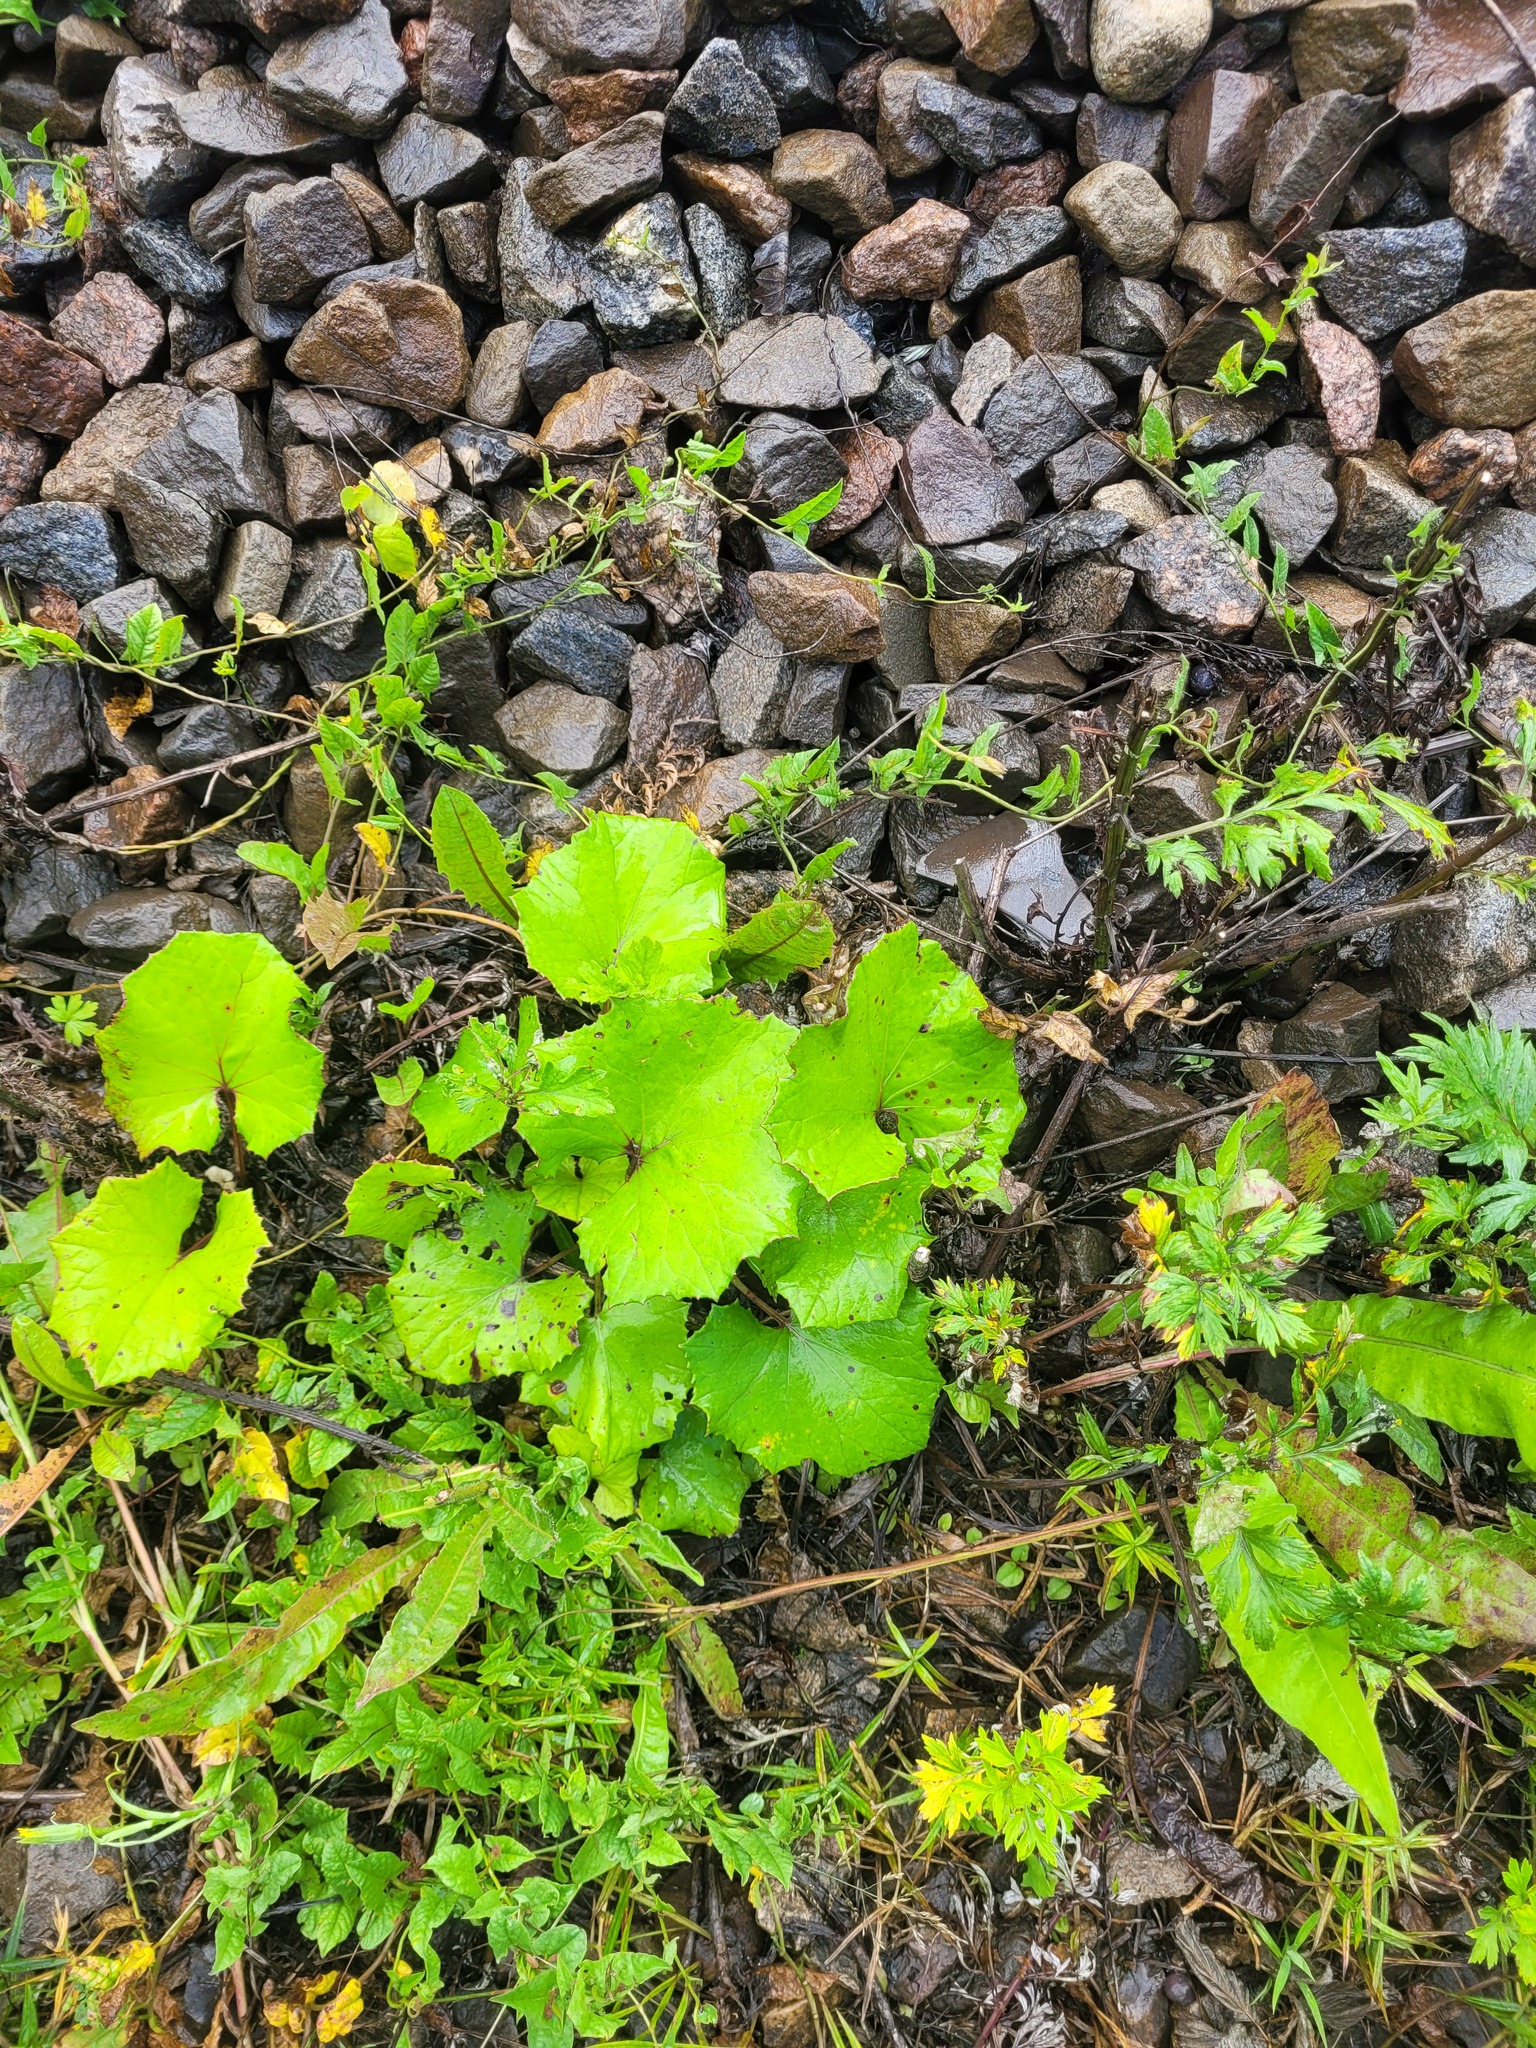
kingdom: Plantae
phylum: Tracheophyta
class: Magnoliopsida
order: Asterales
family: Asteraceae
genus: Tussilago
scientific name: Tussilago farfara
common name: Coltsfoot
